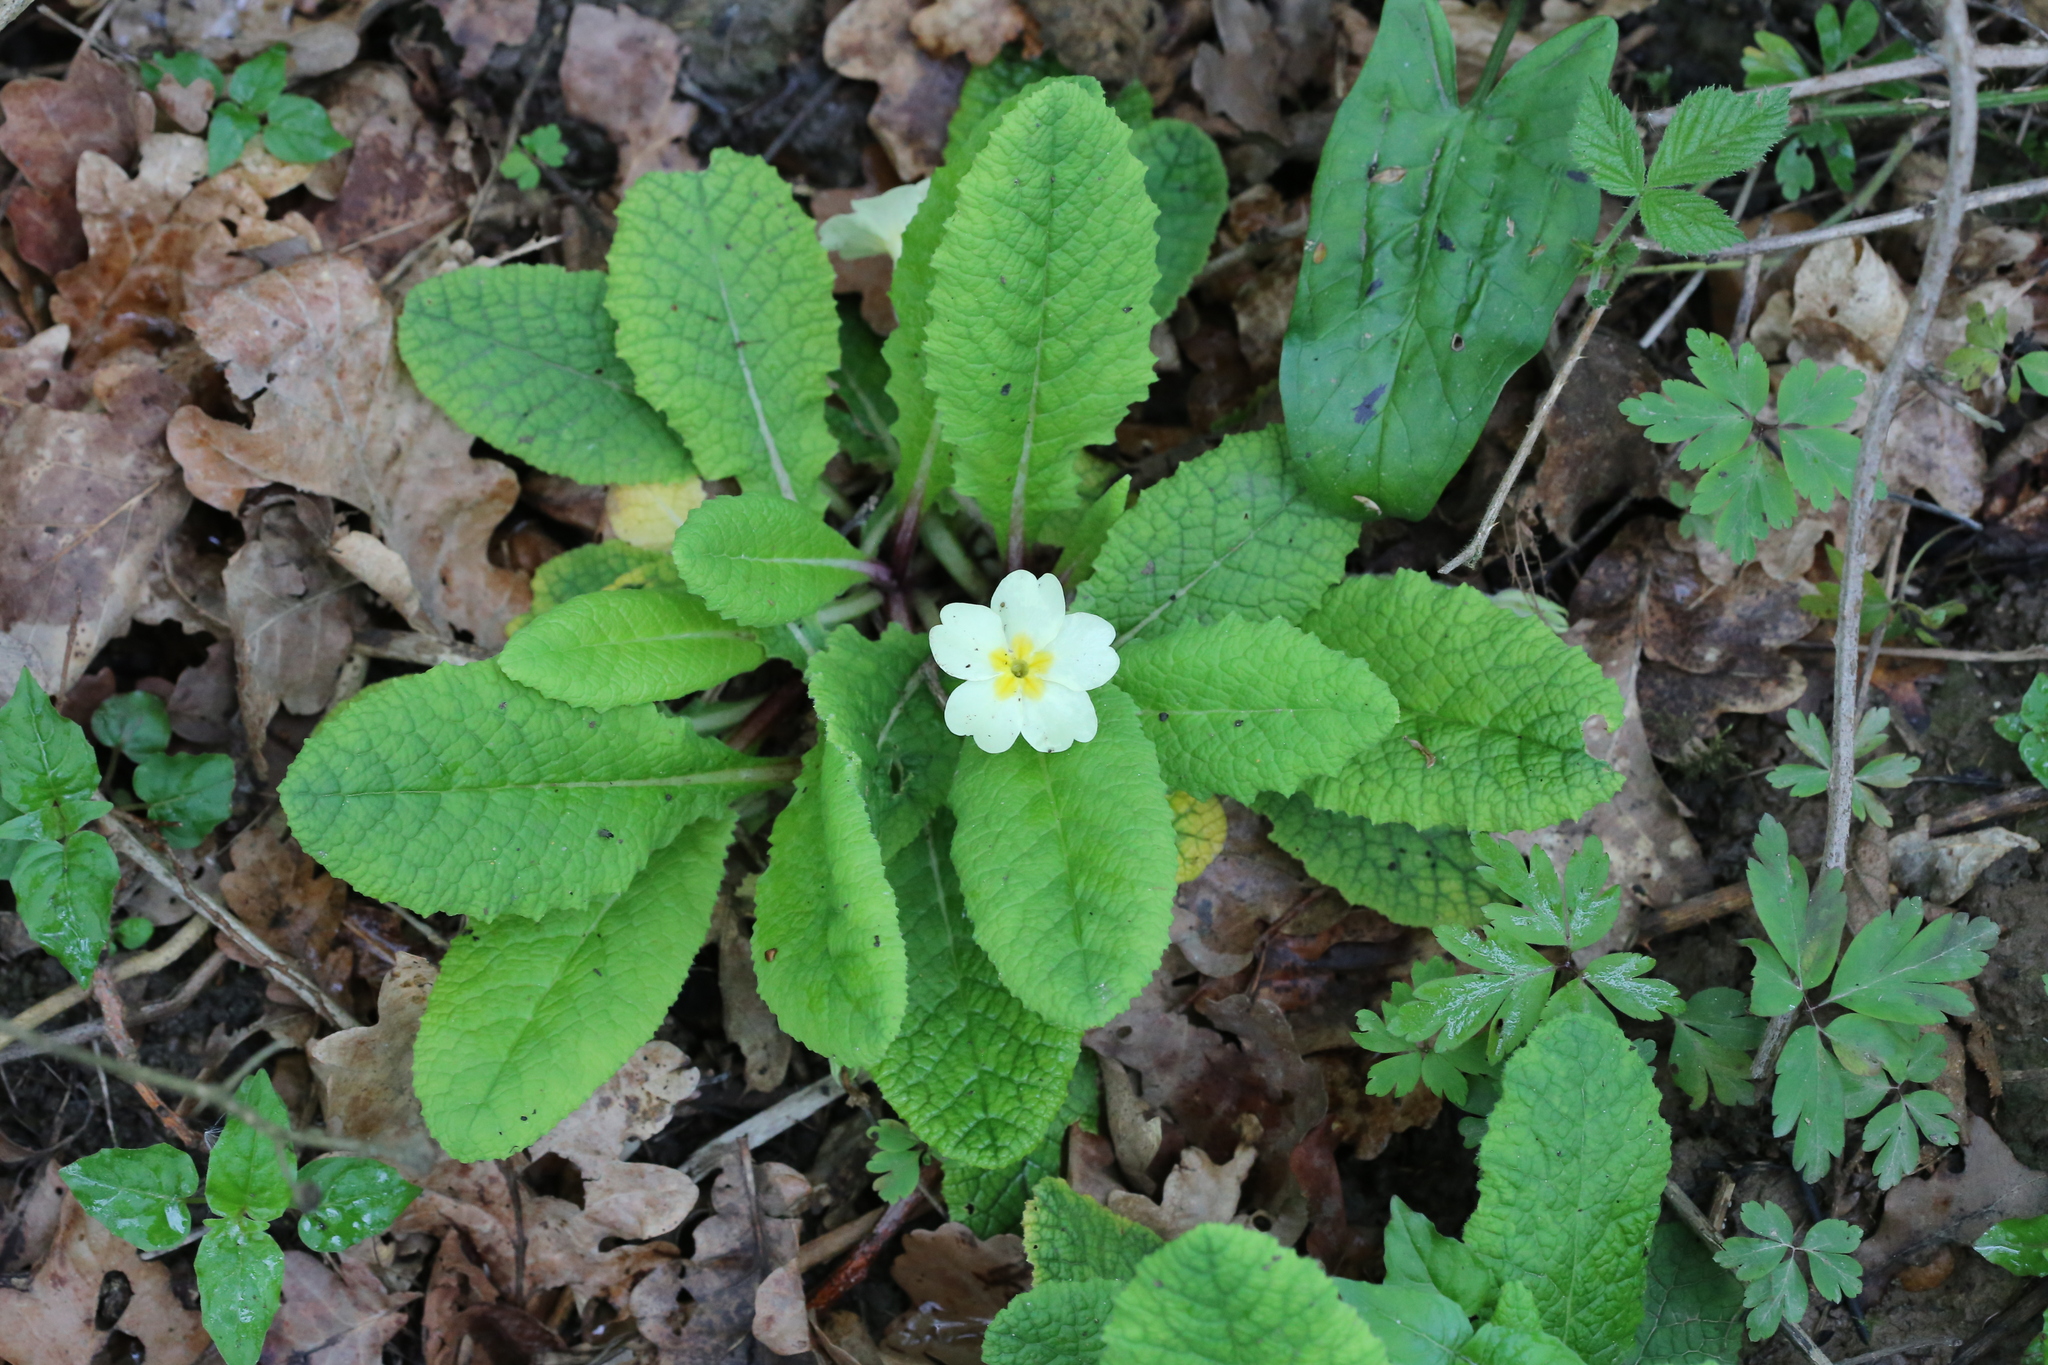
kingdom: Plantae
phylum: Tracheophyta
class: Magnoliopsida
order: Ericales
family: Primulaceae
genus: Primula
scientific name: Primula vulgaris
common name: Primrose
